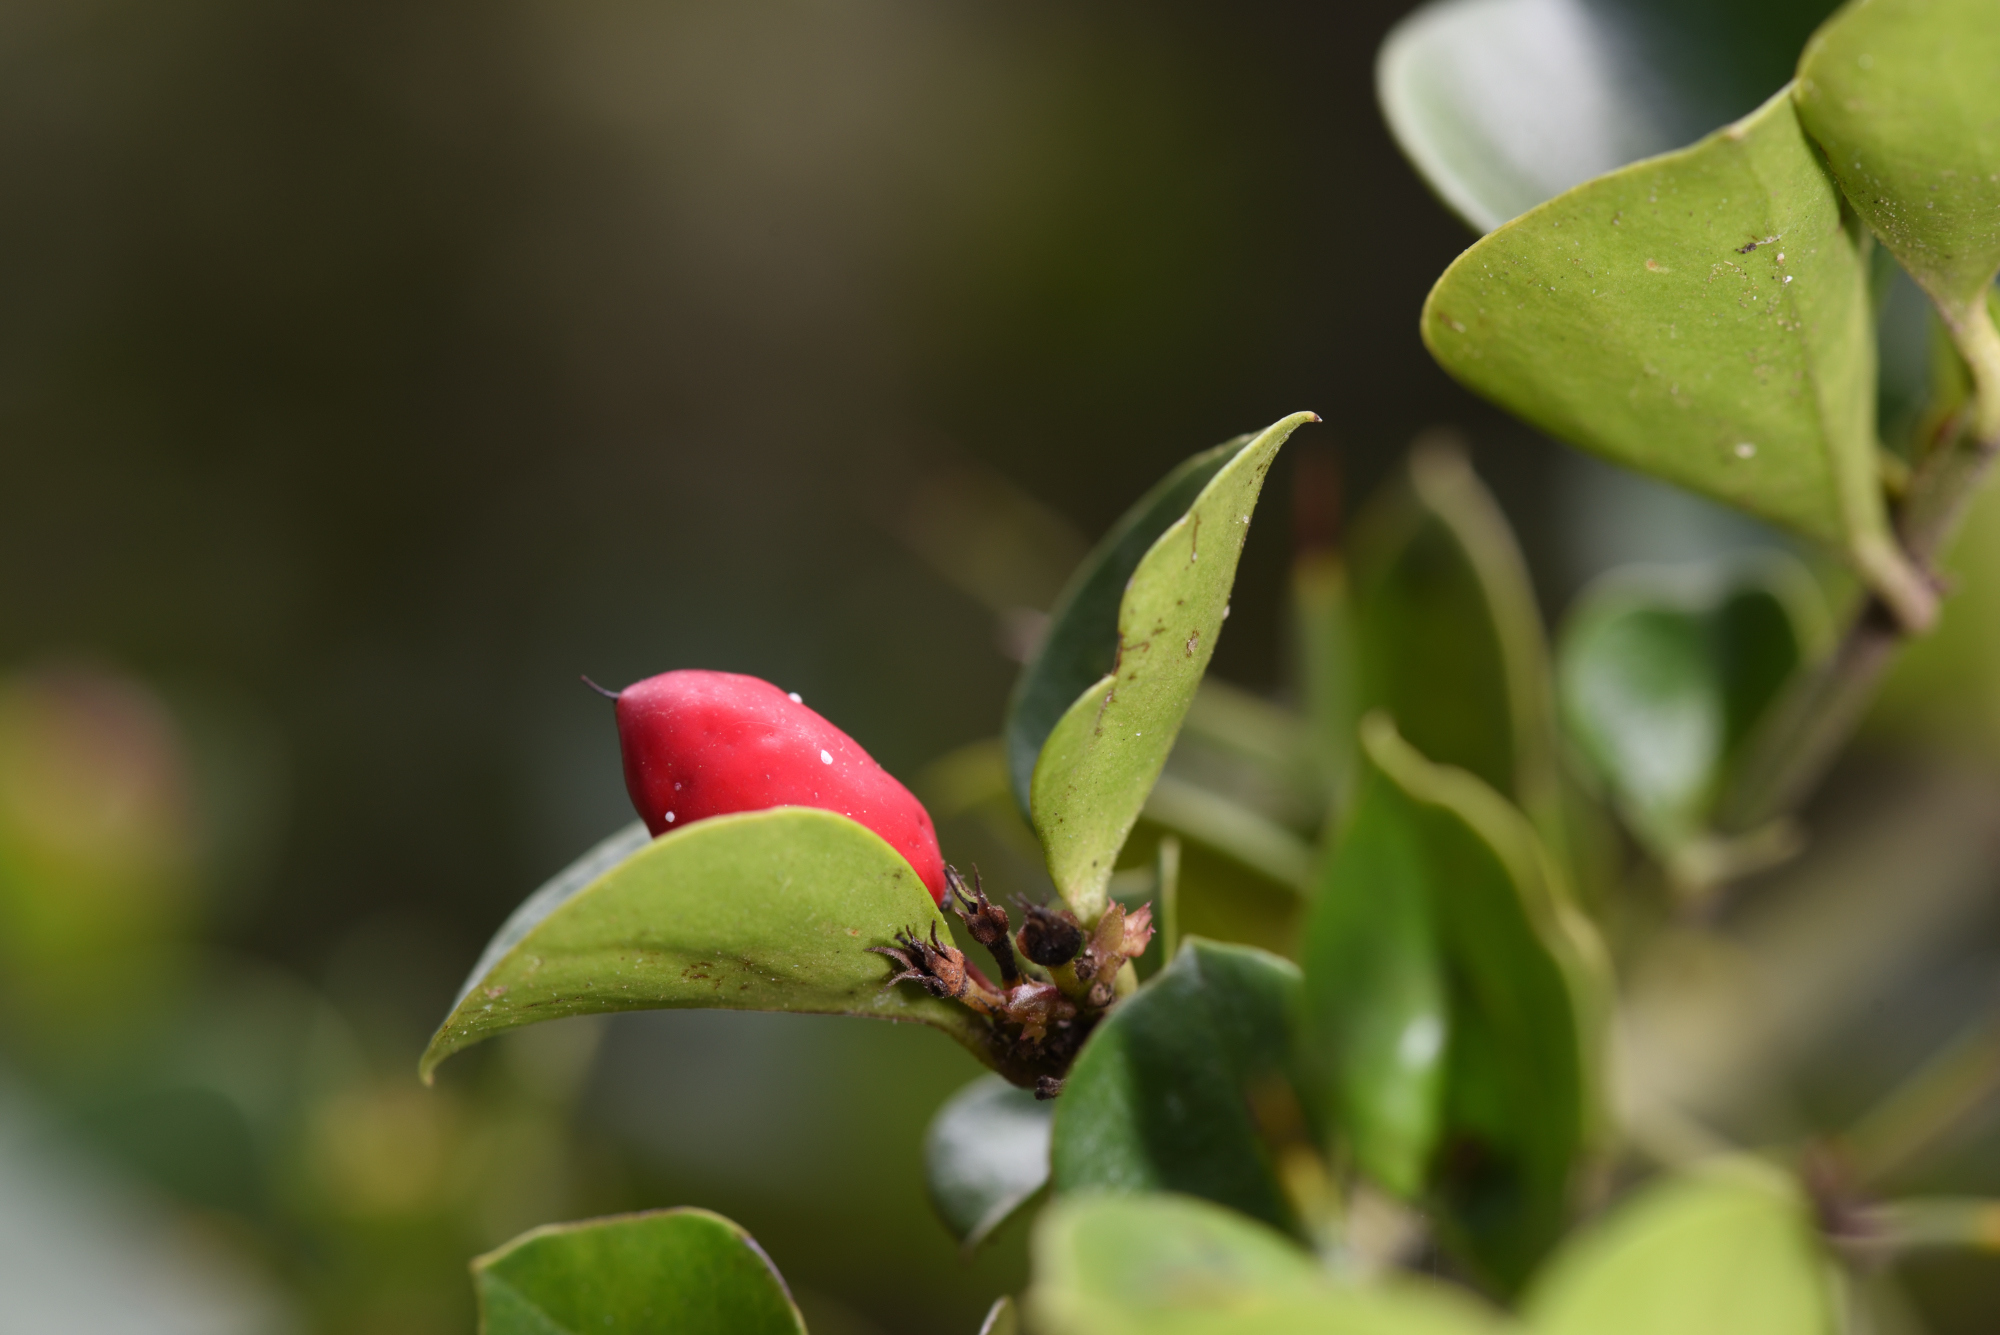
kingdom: Plantae
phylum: Tracheophyta
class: Magnoliopsida
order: Gentianales
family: Apocynaceae
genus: Carissa
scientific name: Carissa bispinosa
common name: Forest num-num
